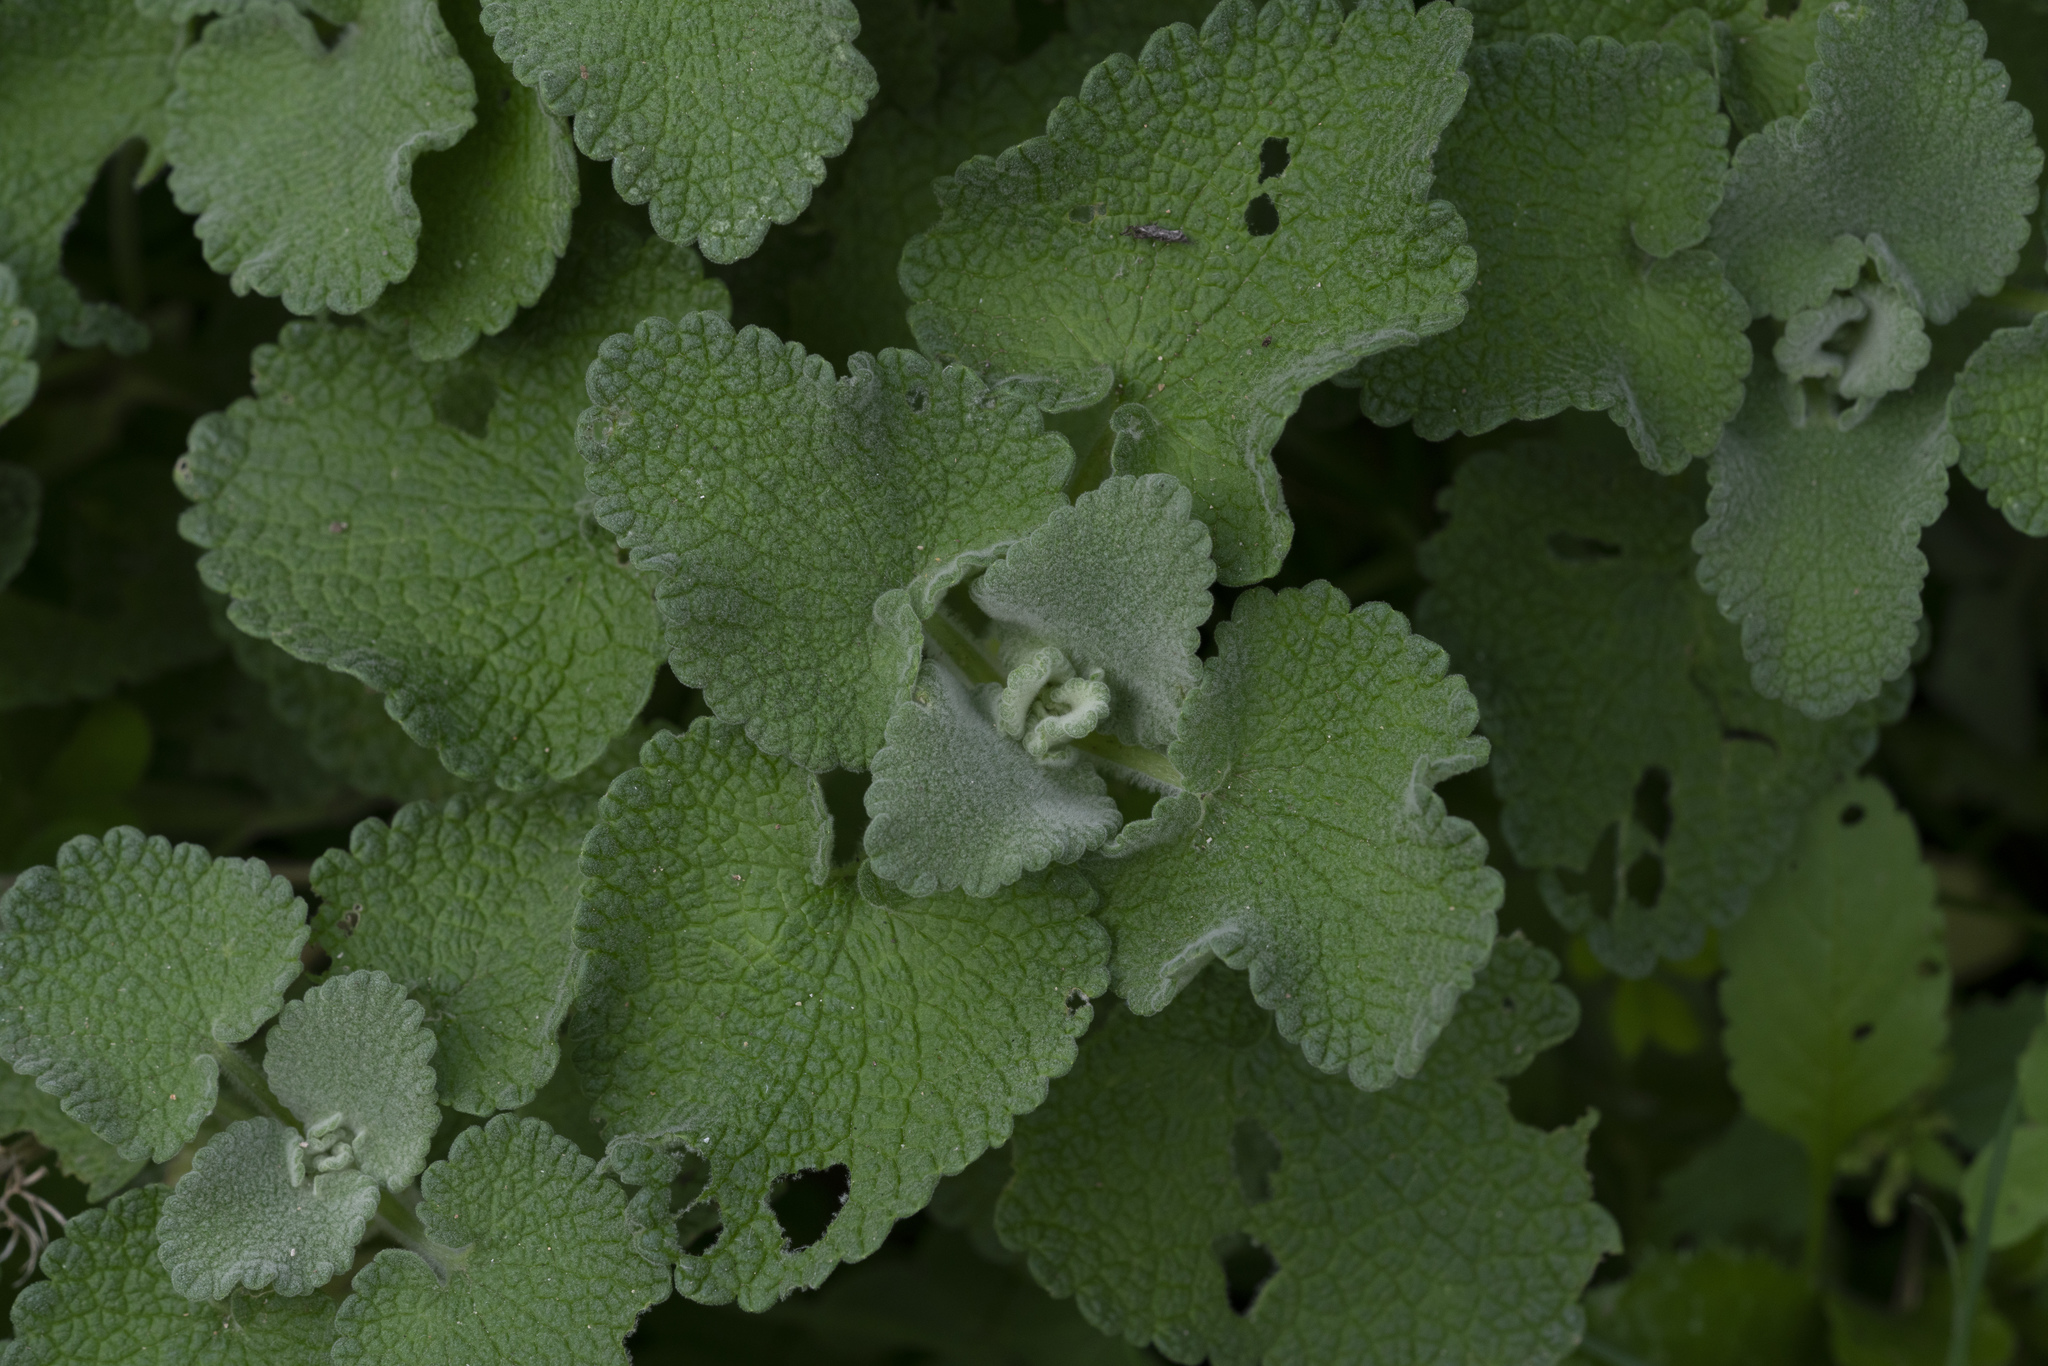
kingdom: Plantae
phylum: Tracheophyta
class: Magnoliopsida
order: Lamiales
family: Lamiaceae
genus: Pseudodictamnus
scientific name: Pseudodictamnus acetabulosus
